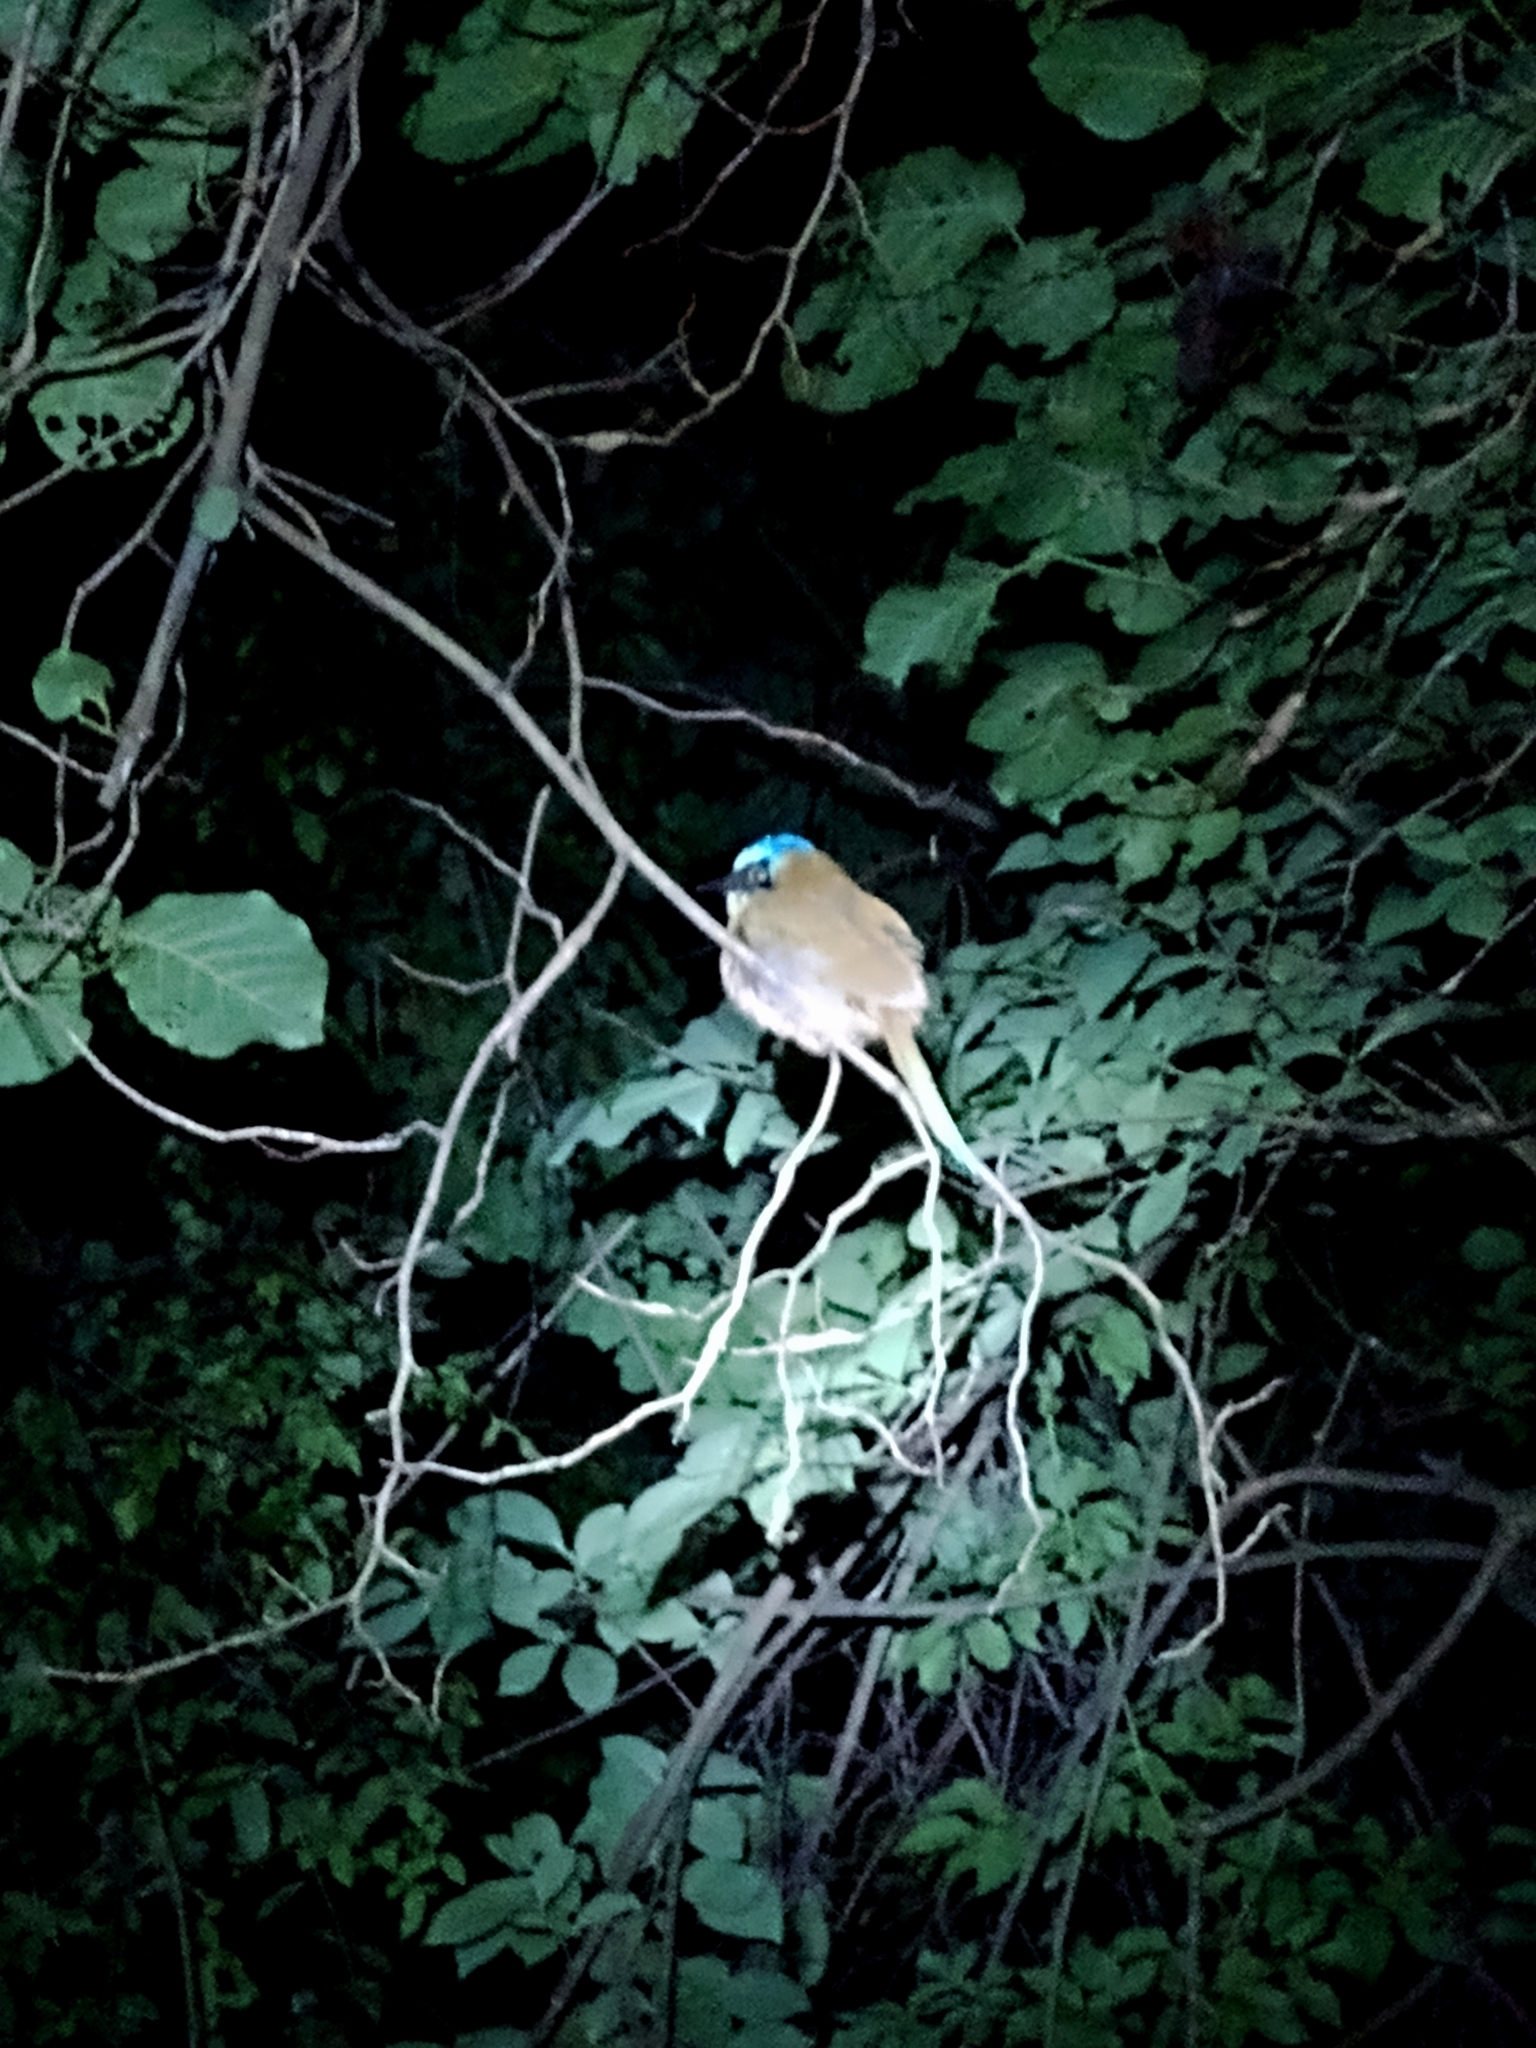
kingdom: Animalia
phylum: Chordata
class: Aves
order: Coraciiformes
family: Momotidae
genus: Momotus
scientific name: Momotus momota
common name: Amazonian motmot
